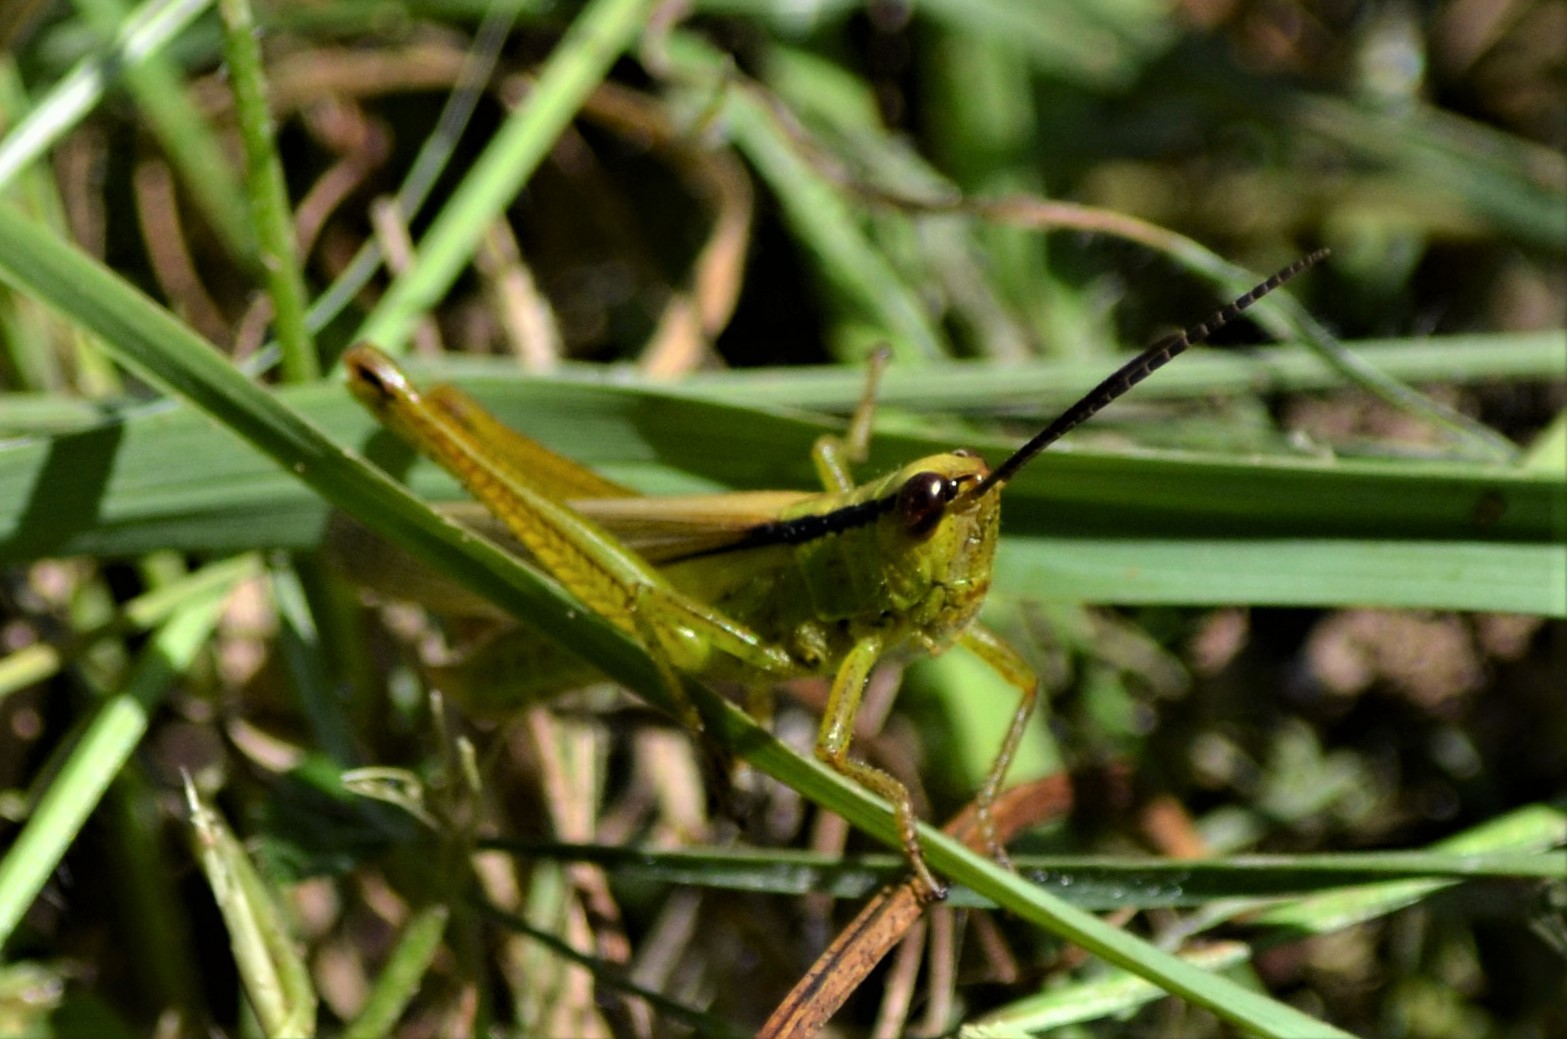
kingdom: Animalia
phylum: Arthropoda
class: Insecta
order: Orthoptera
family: Acrididae
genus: Mecostethus
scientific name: Mecostethus parapleurus
